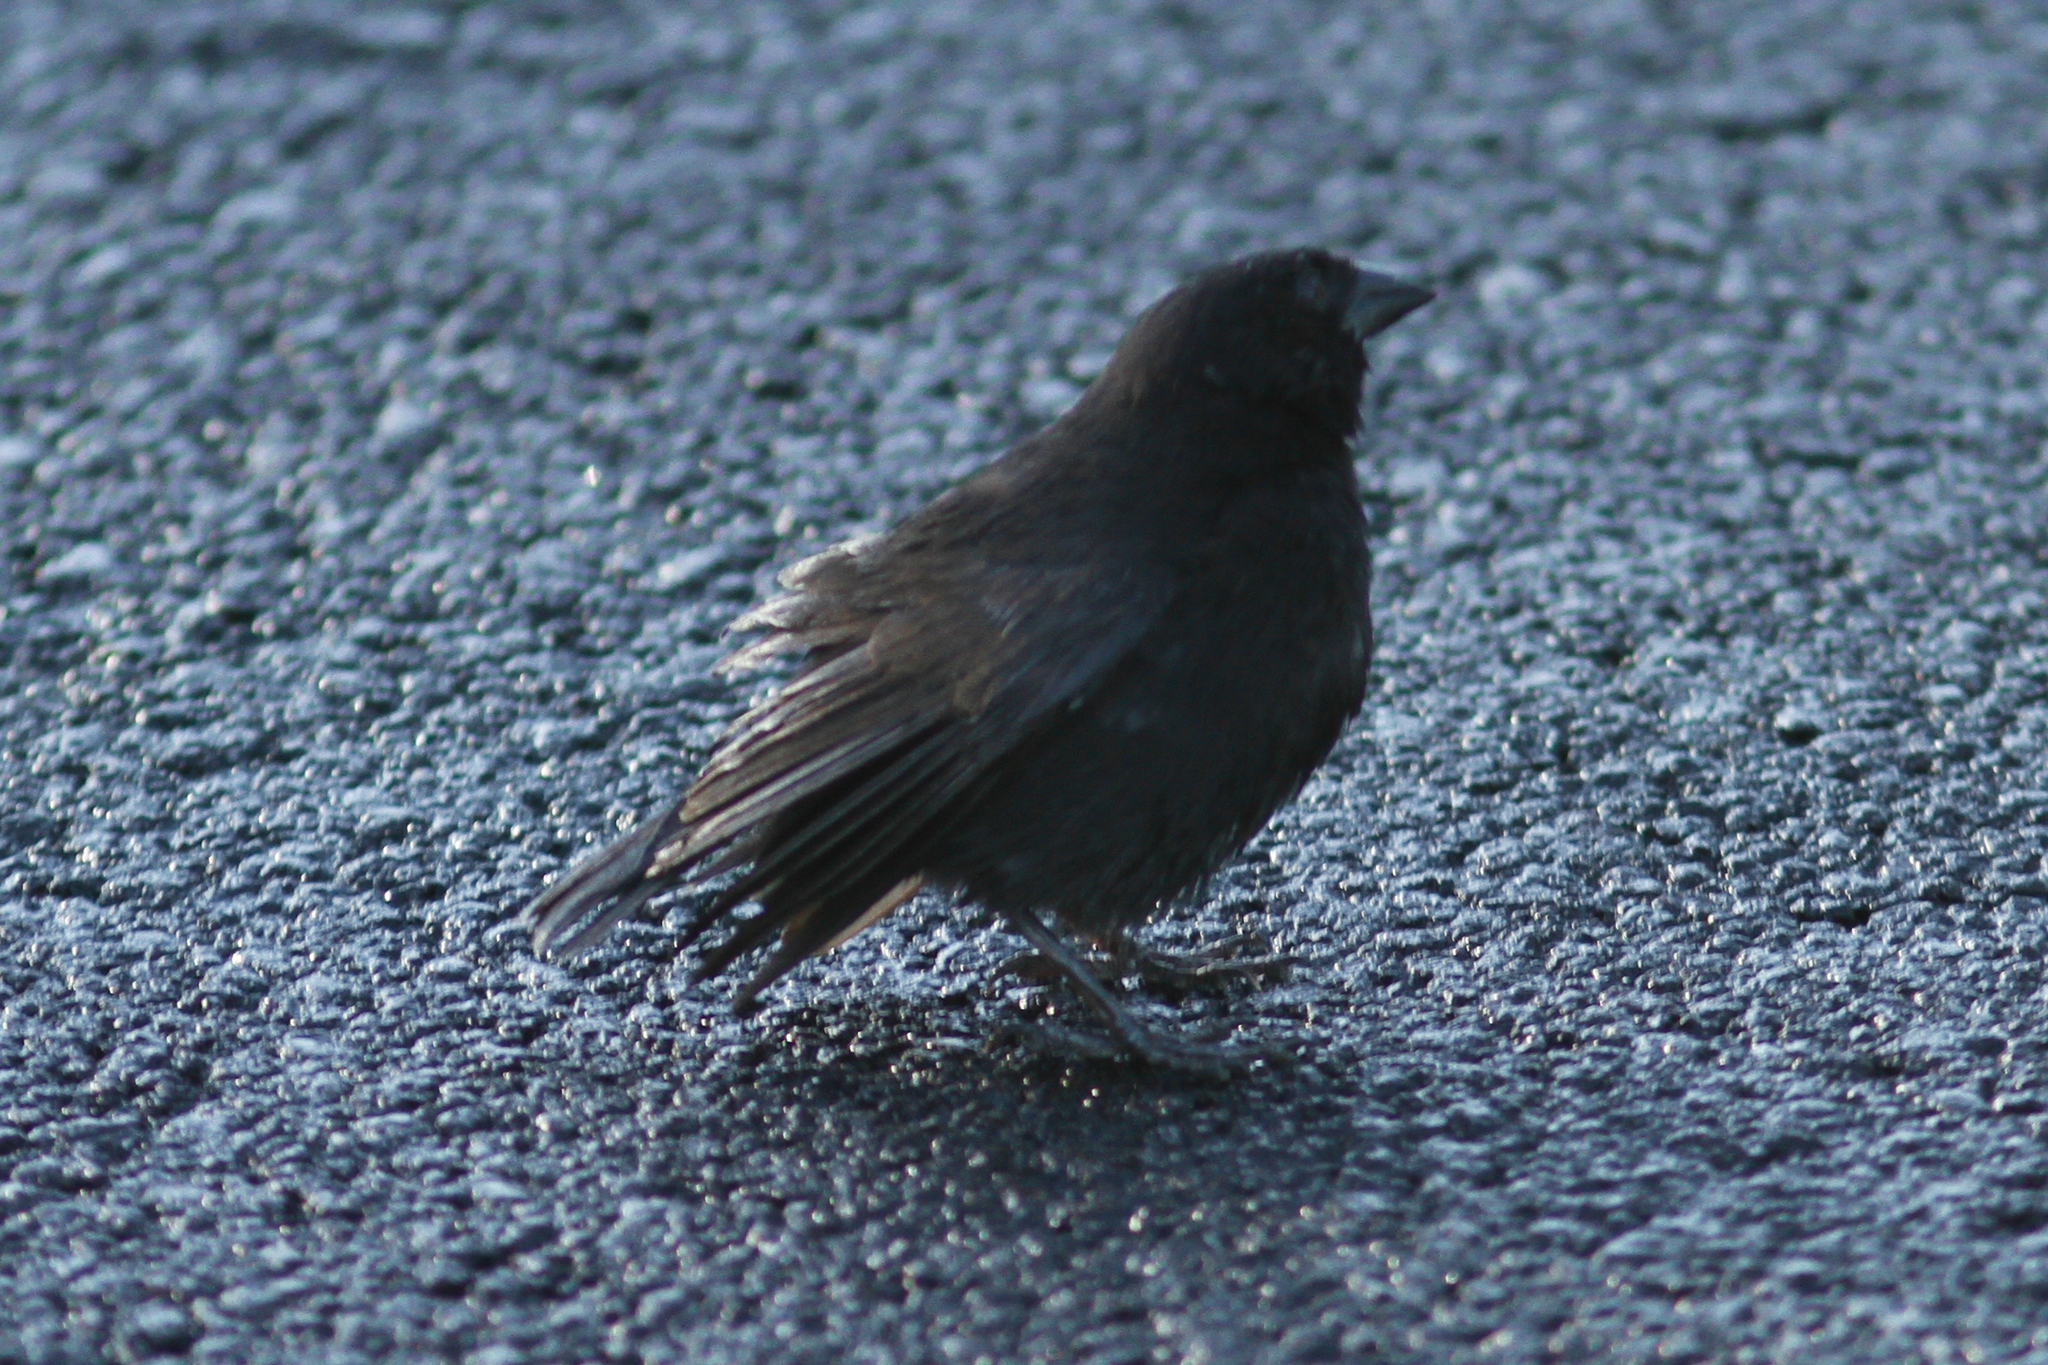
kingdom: Animalia
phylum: Chordata
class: Aves
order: Passeriformes
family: Thraupidae
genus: Geospiza
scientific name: Geospiza fuliginosa
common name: Small ground finch
